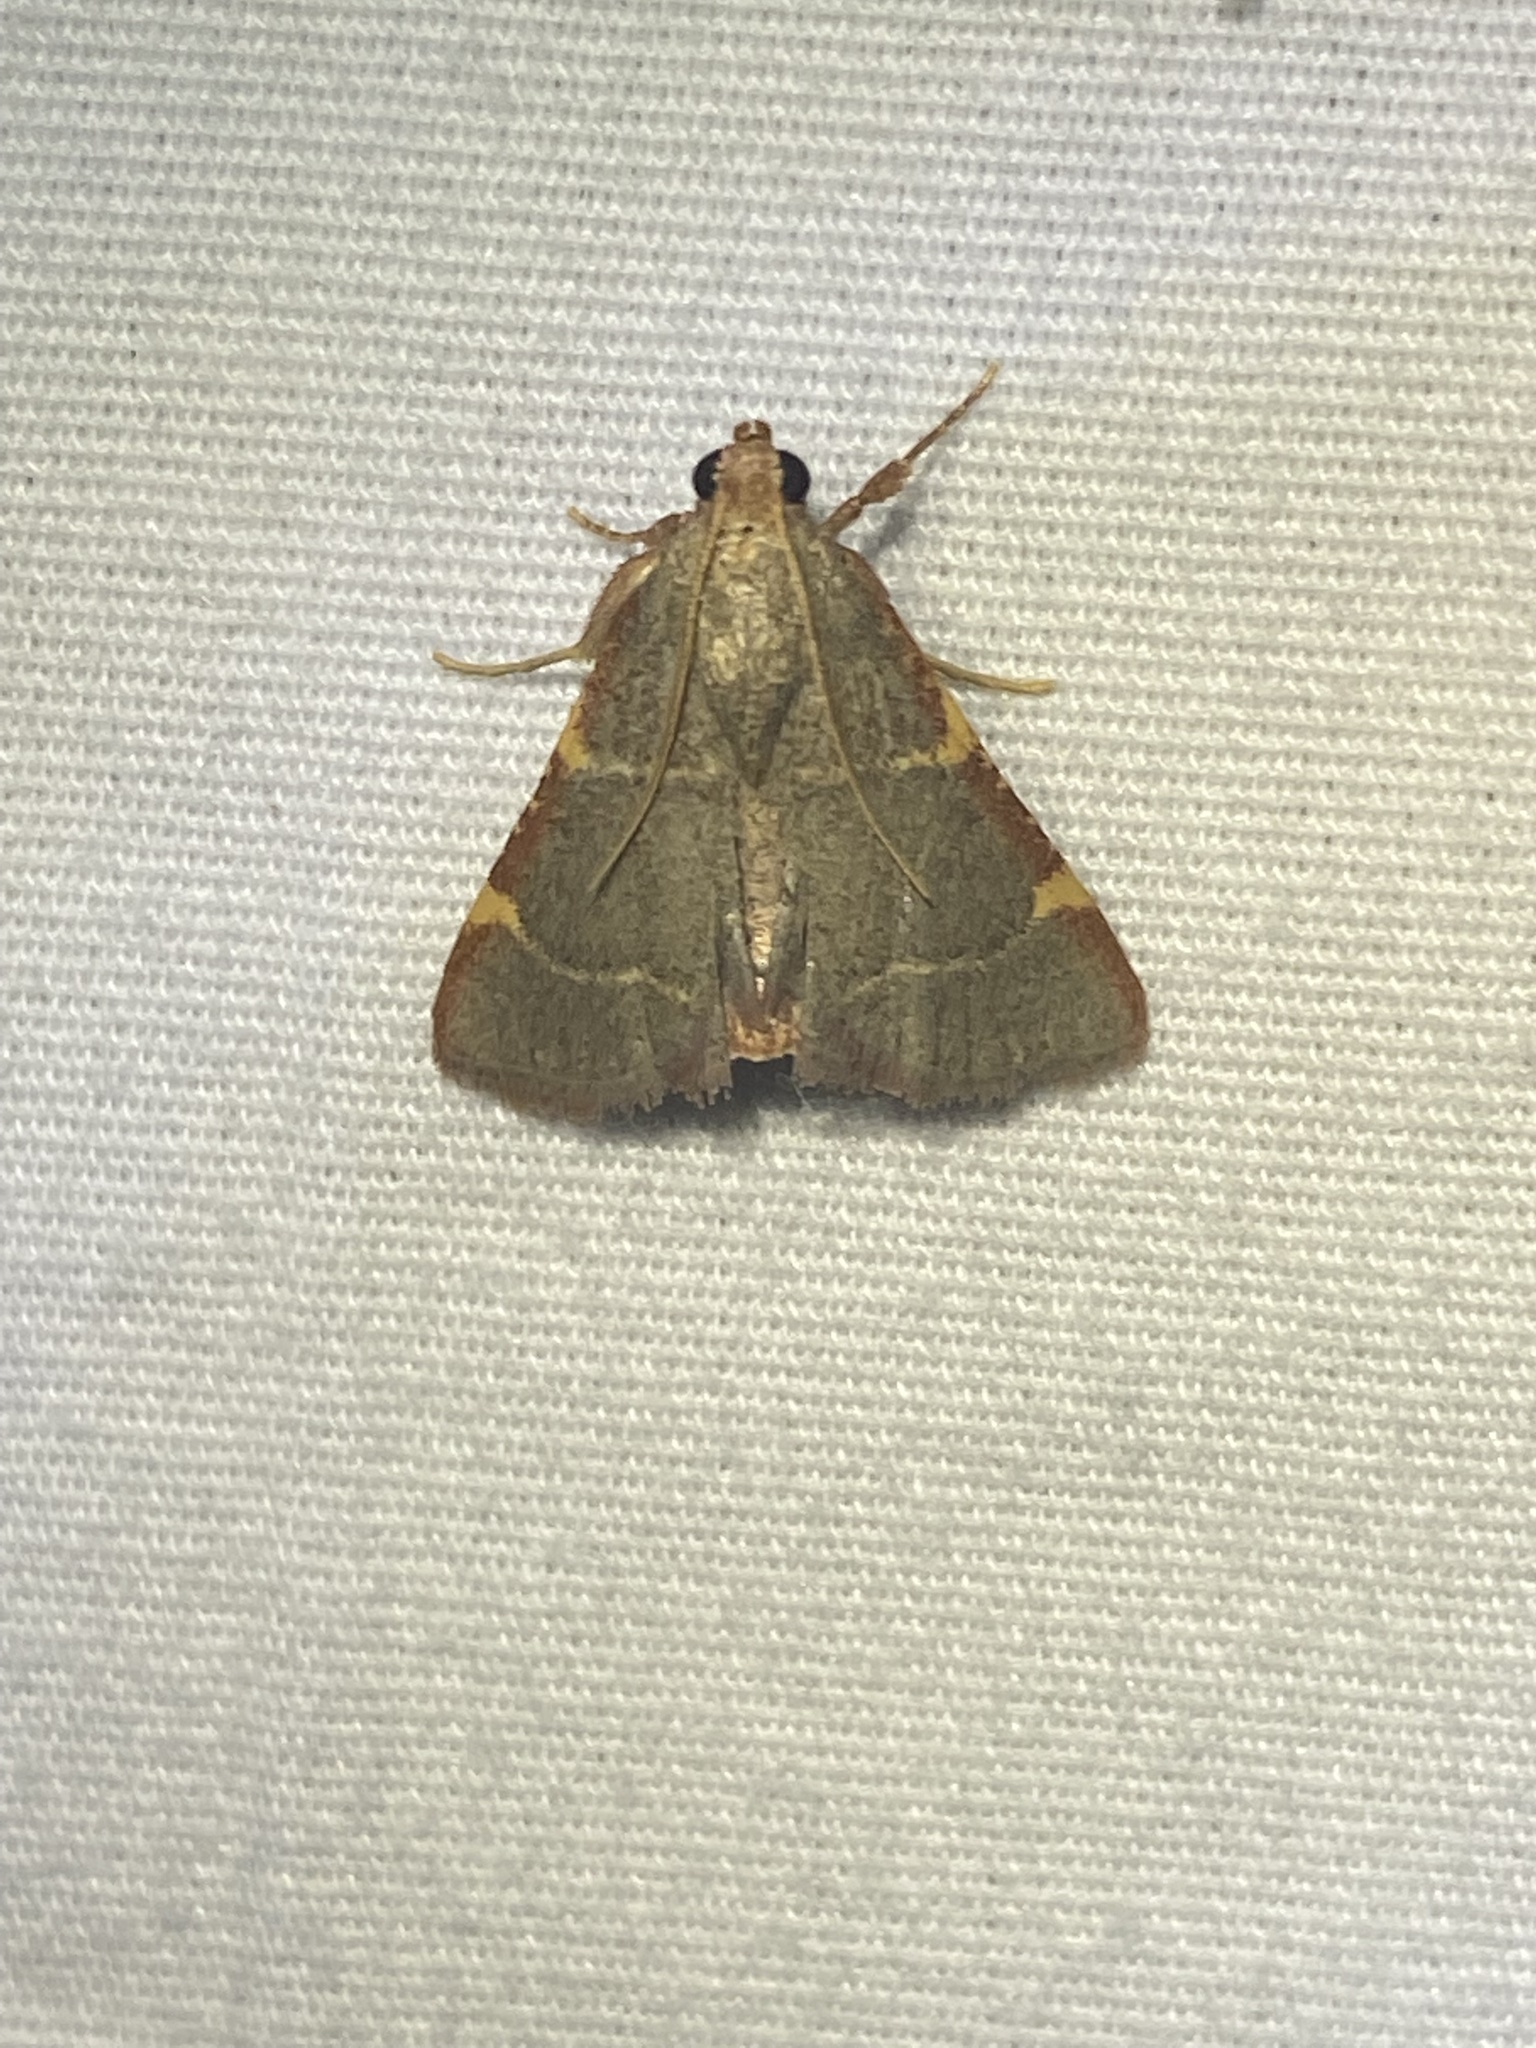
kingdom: Animalia
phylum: Arthropoda
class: Insecta
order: Lepidoptera
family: Pyralidae
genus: Hypsopygia
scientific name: Hypsopygia binodulalis
